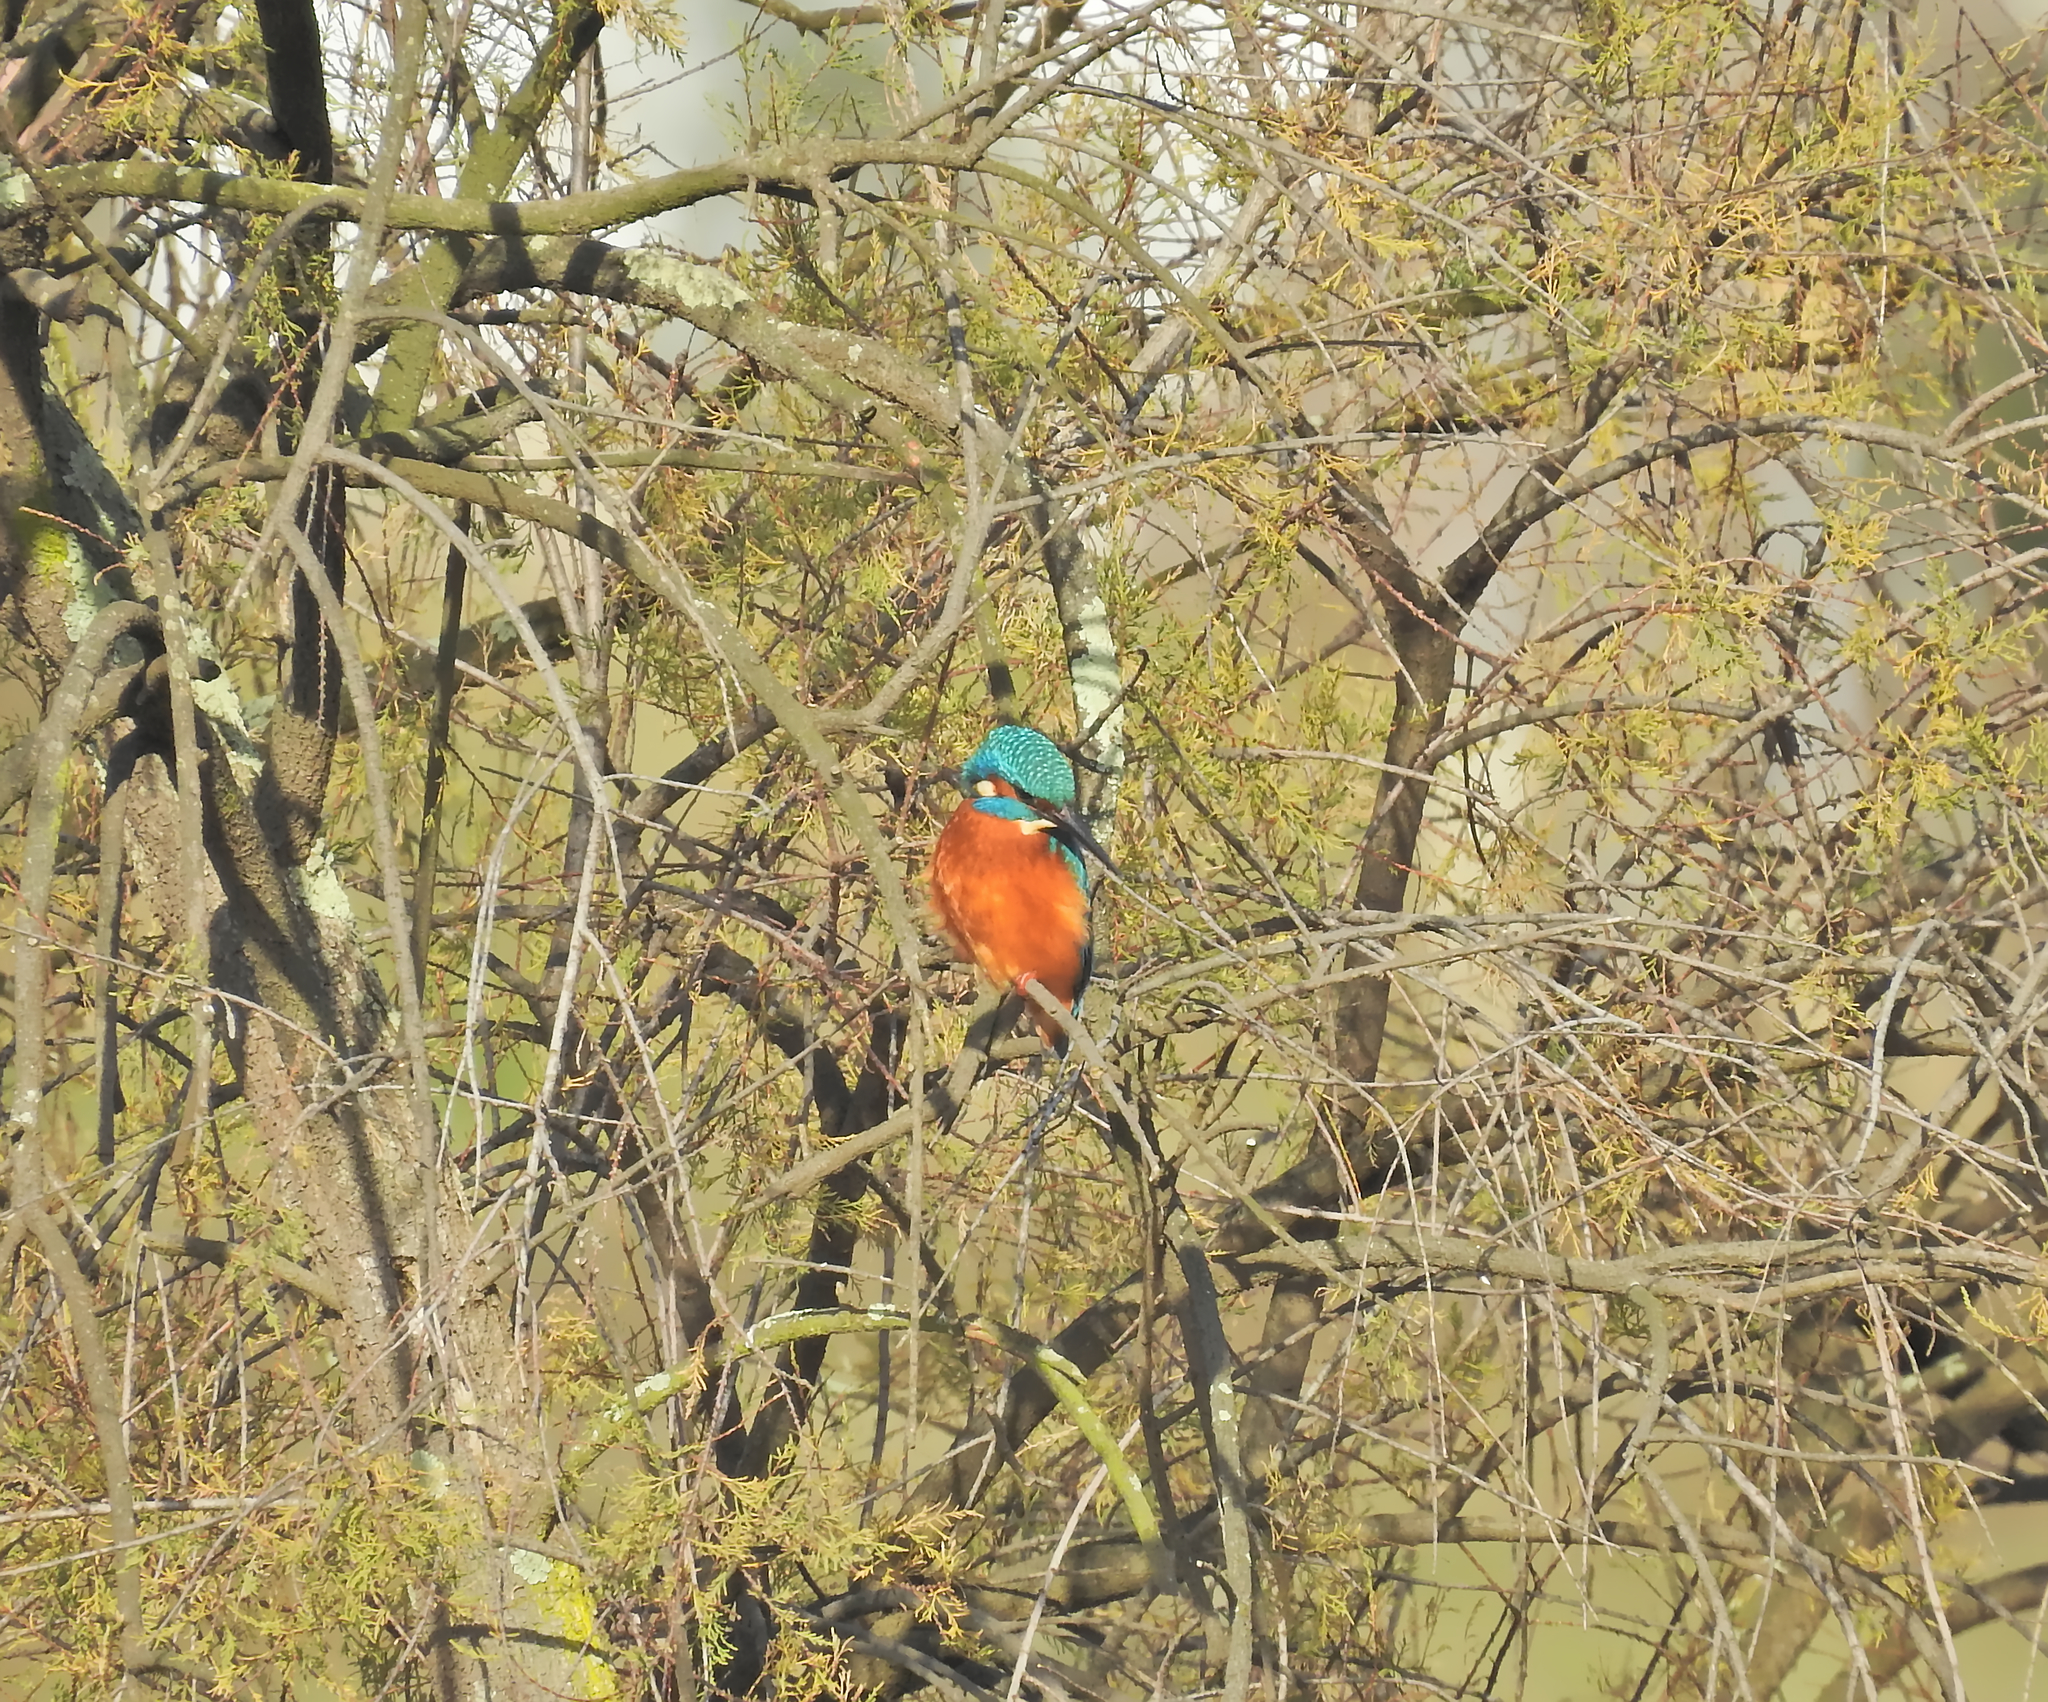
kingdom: Animalia
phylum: Chordata
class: Aves
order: Coraciiformes
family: Alcedinidae
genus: Alcedo
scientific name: Alcedo atthis
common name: Common kingfisher
